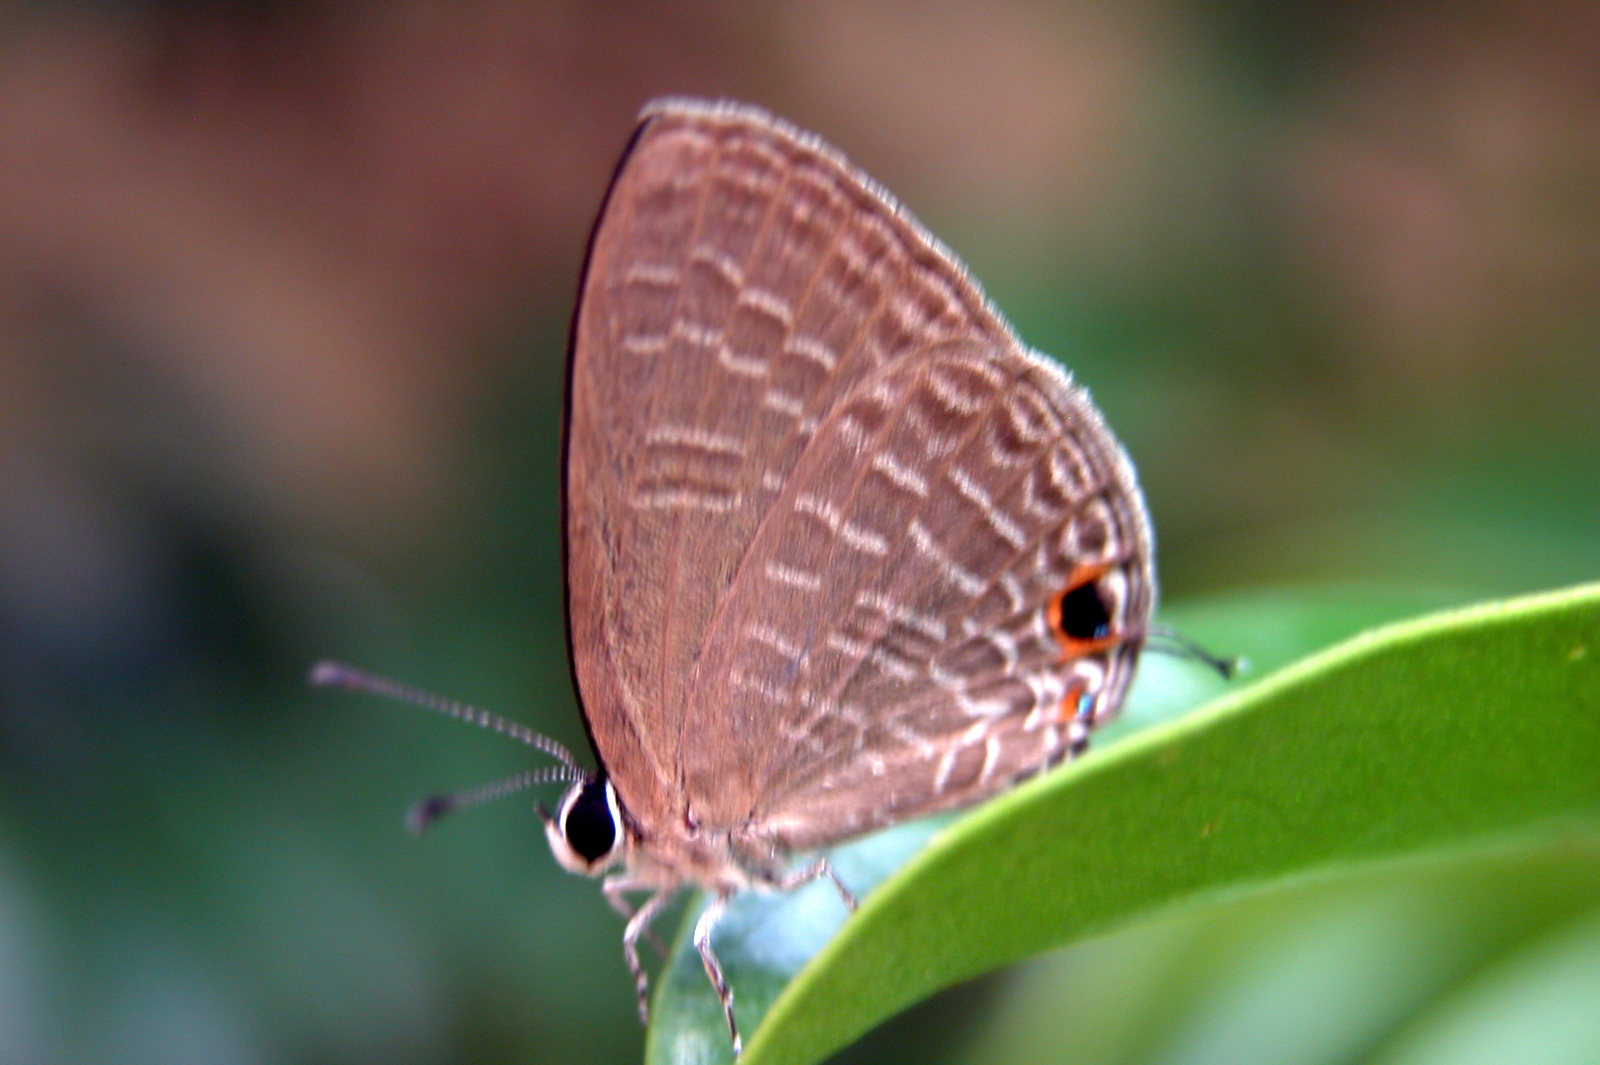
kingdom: Animalia
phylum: Arthropoda
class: Insecta
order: Lepidoptera
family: Lycaenidae
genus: Jamides
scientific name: Jamides bochus
